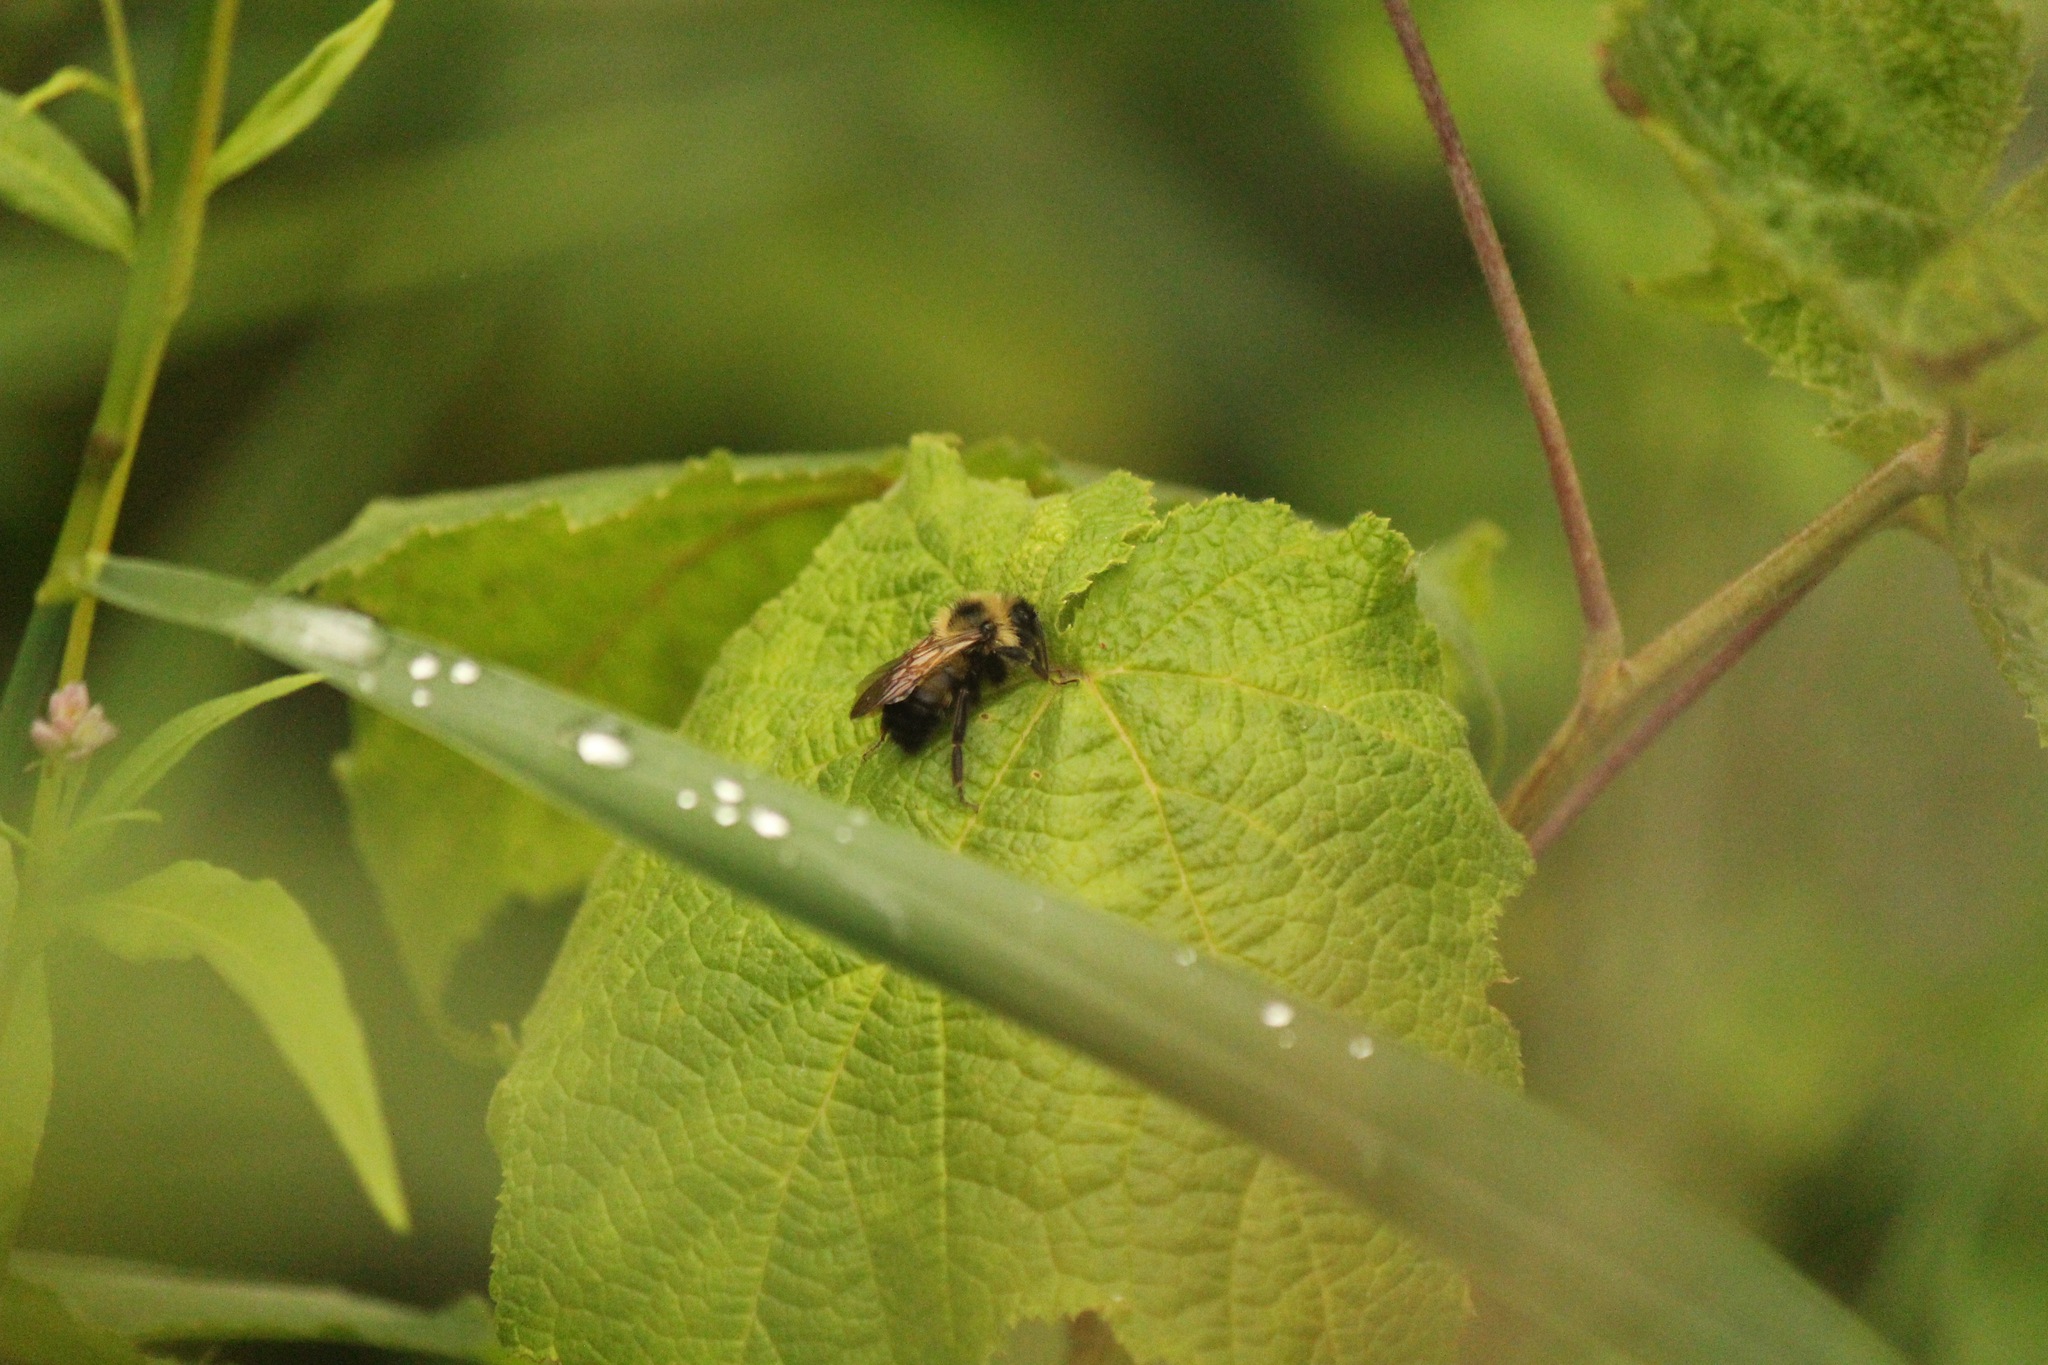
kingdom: Animalia
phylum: Arthropoda
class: Insecta
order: Hymenoptera
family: Apidae
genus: Bombus
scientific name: Bombus citrinus
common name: Lemon cuckoo bumble bee
